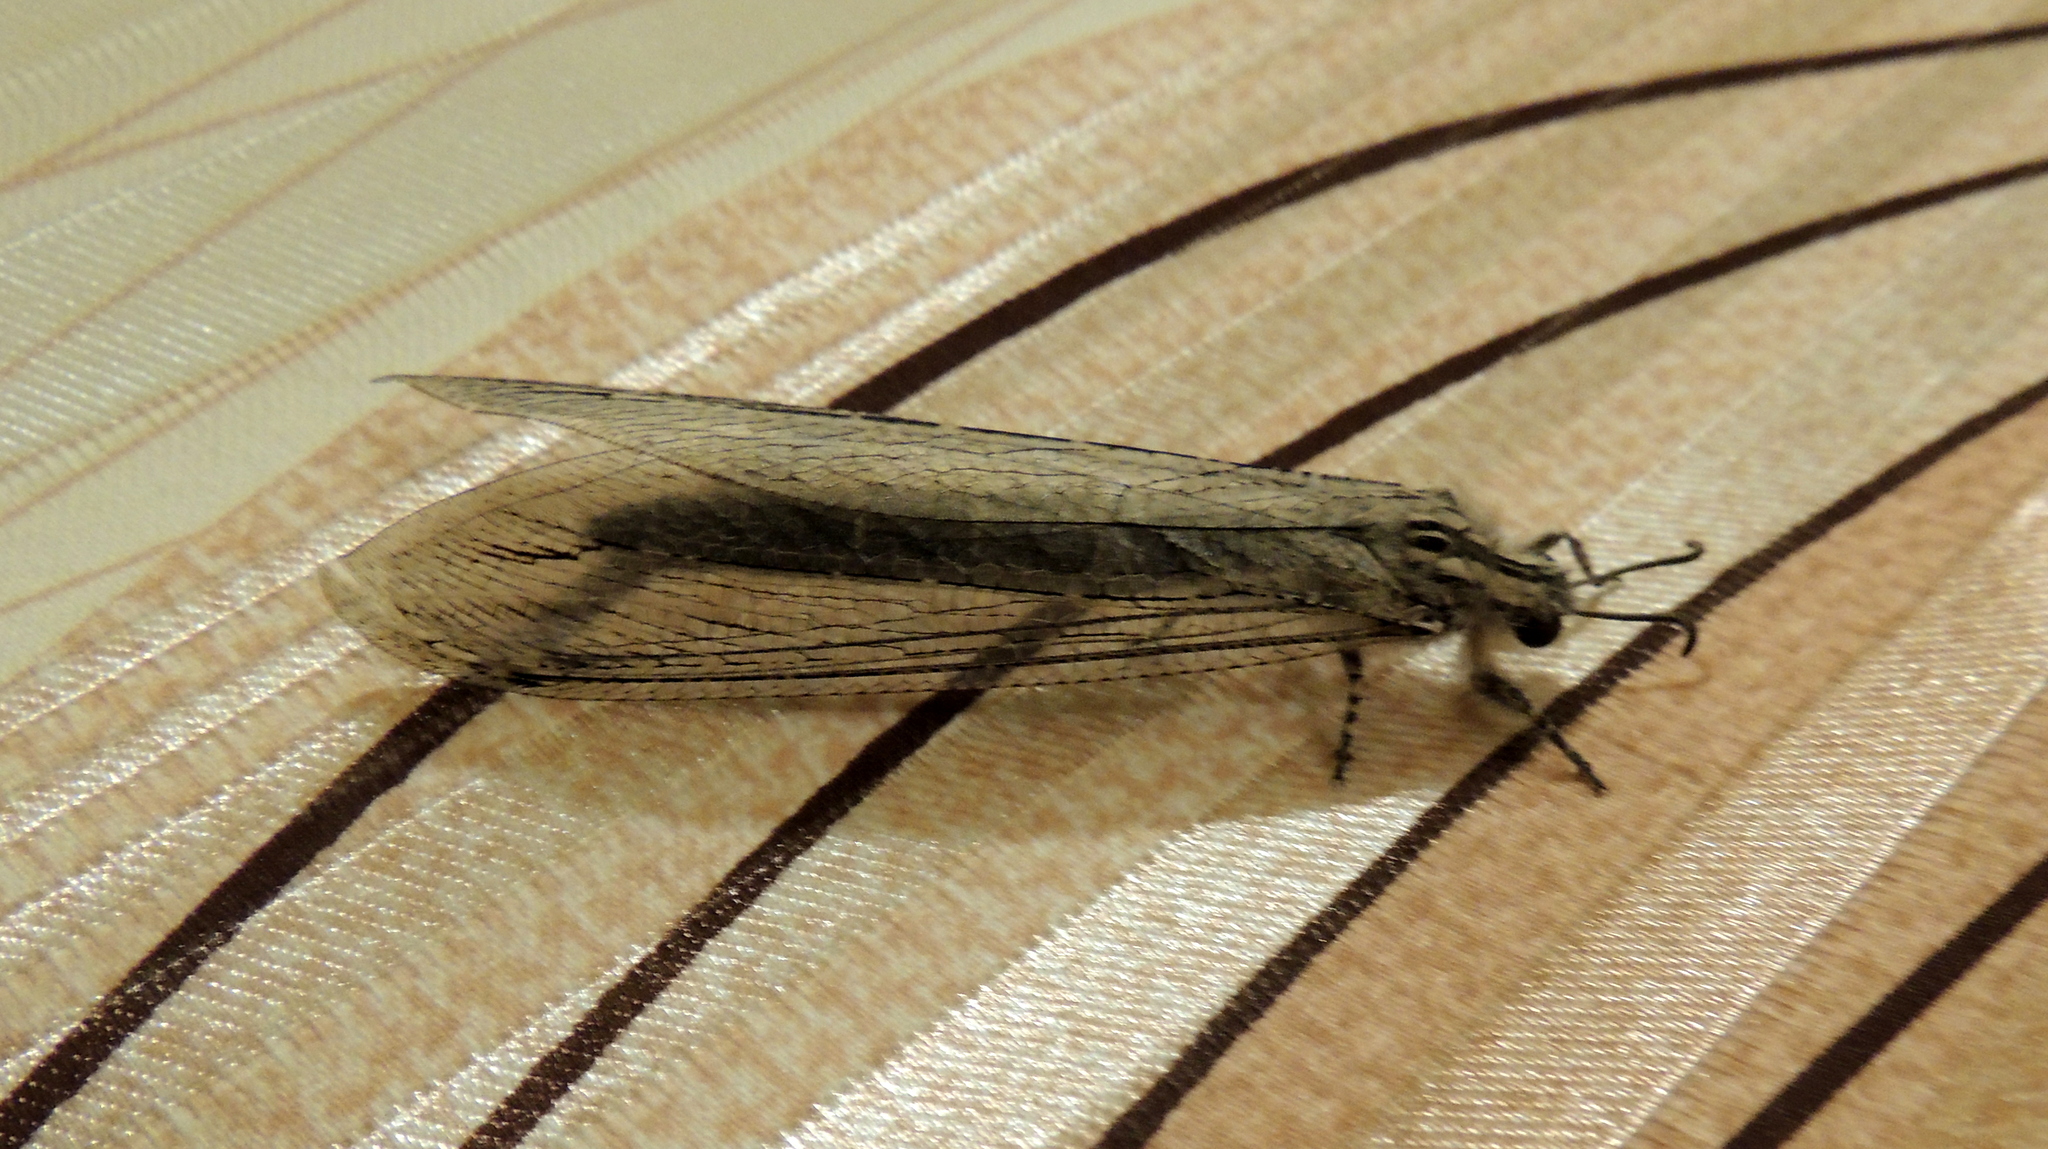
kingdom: Animalia
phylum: Arthropoda
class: Insecta
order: Neuroptera
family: Myrmeleontidae
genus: Acanthaclisis
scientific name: Acanthaclisis occitanica
